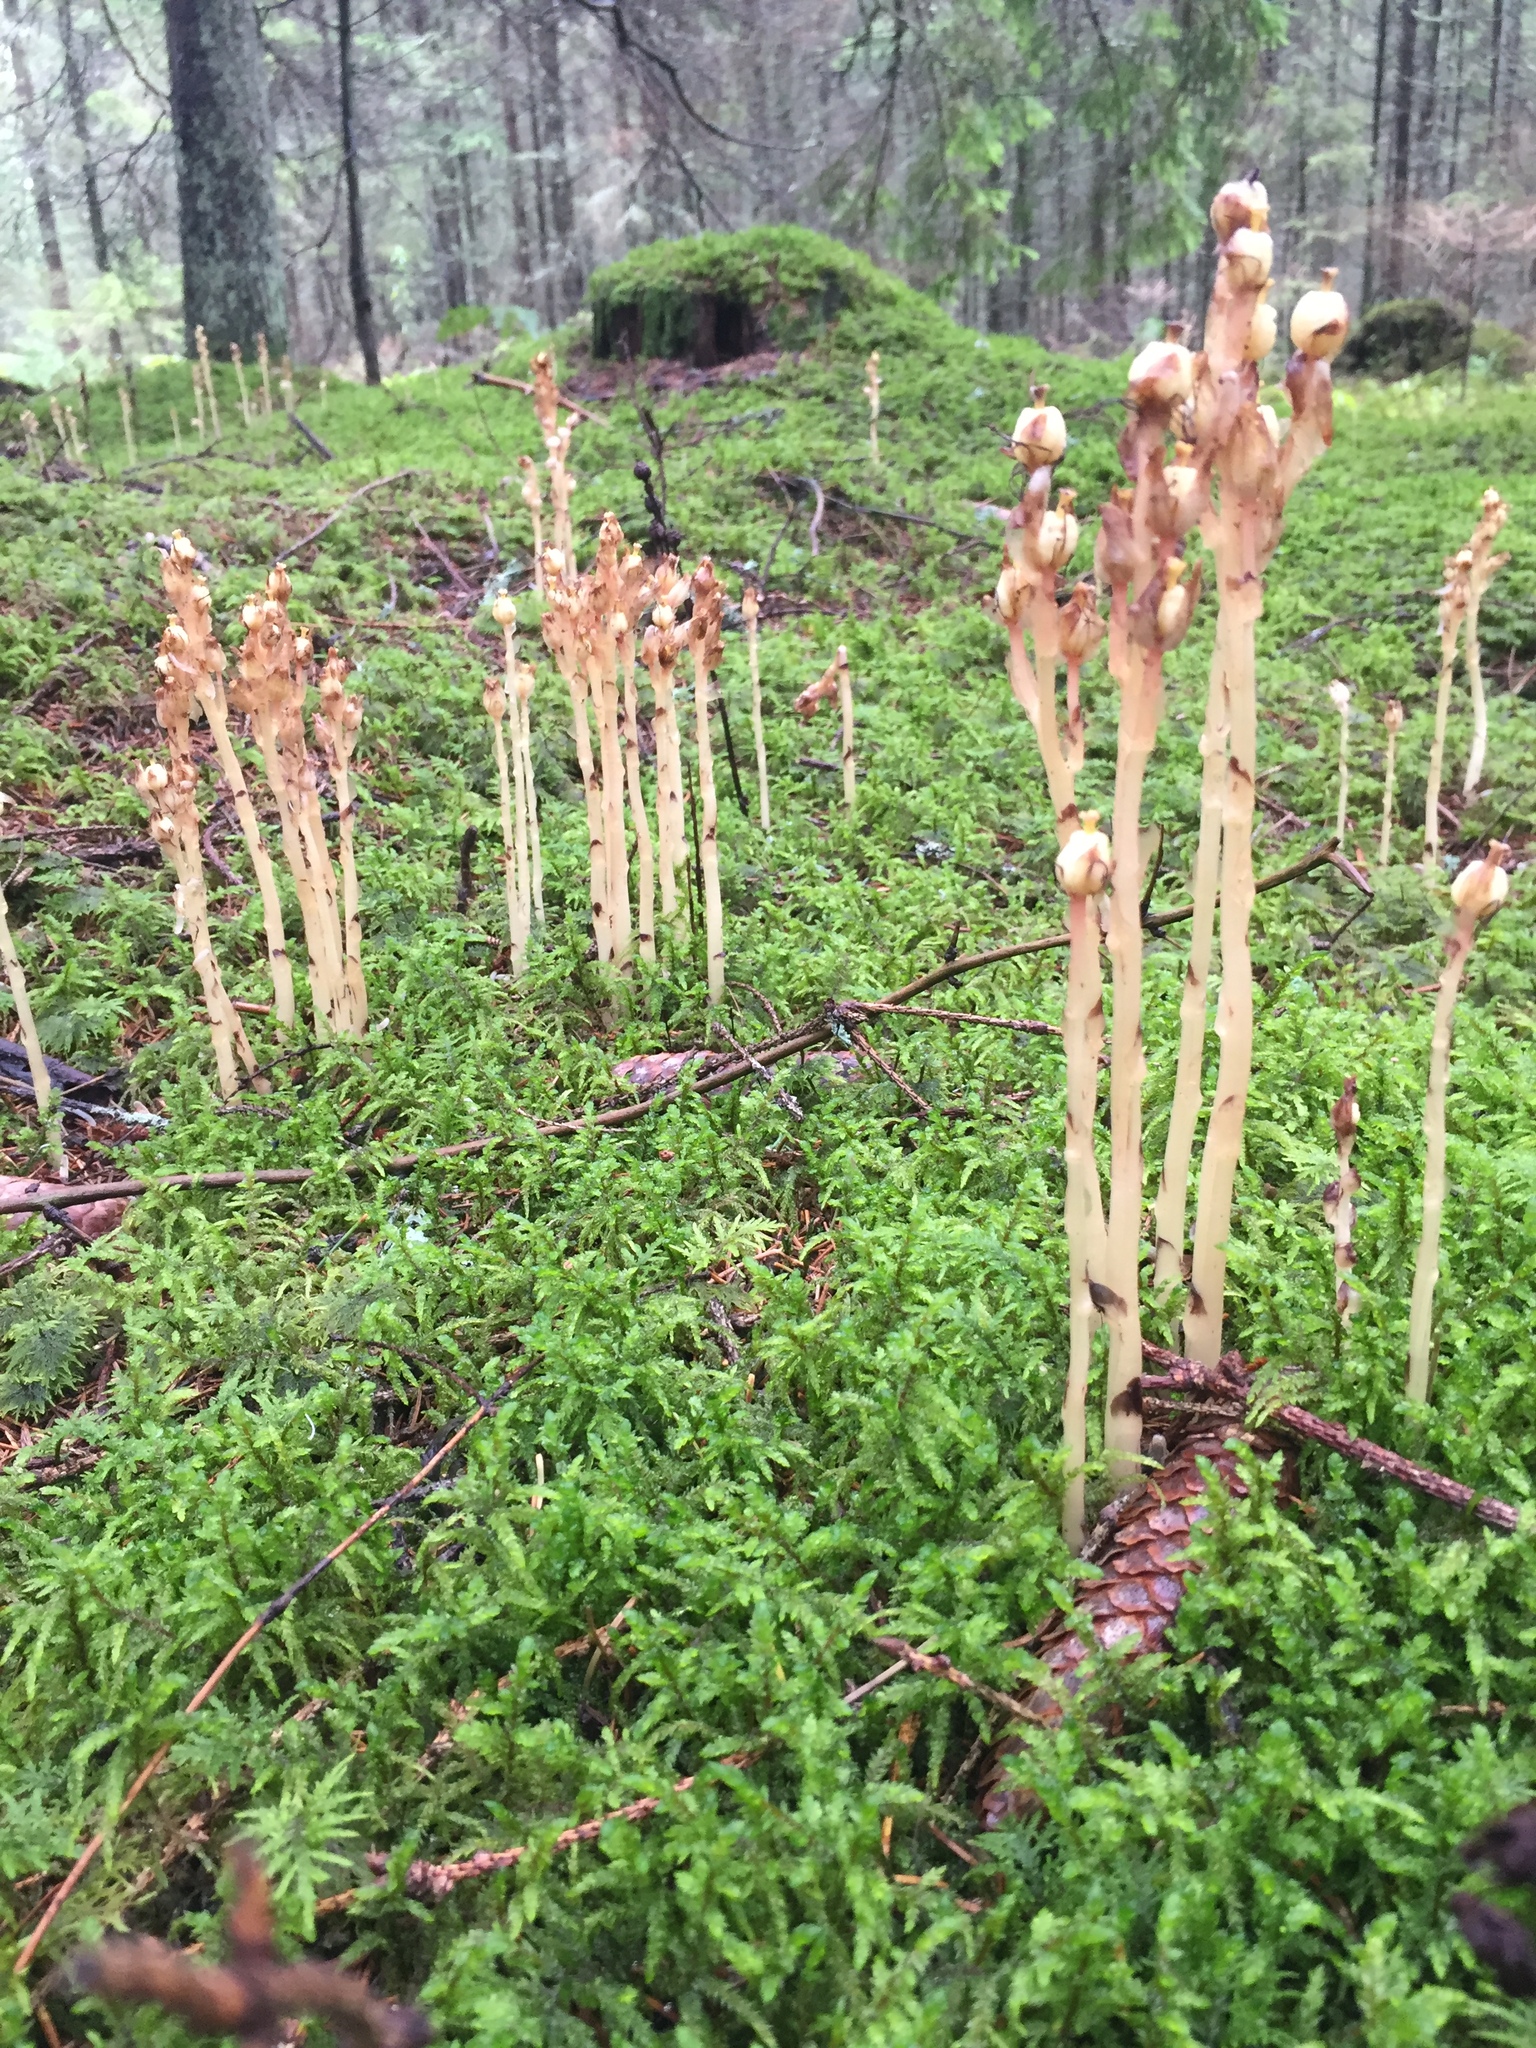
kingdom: Plantae
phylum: Tracheophyta
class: Magnoliopsida
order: Ericales
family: Ericaceae
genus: Hypopitys
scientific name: Hypopitys monotropa
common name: Yellow bird's-nest
